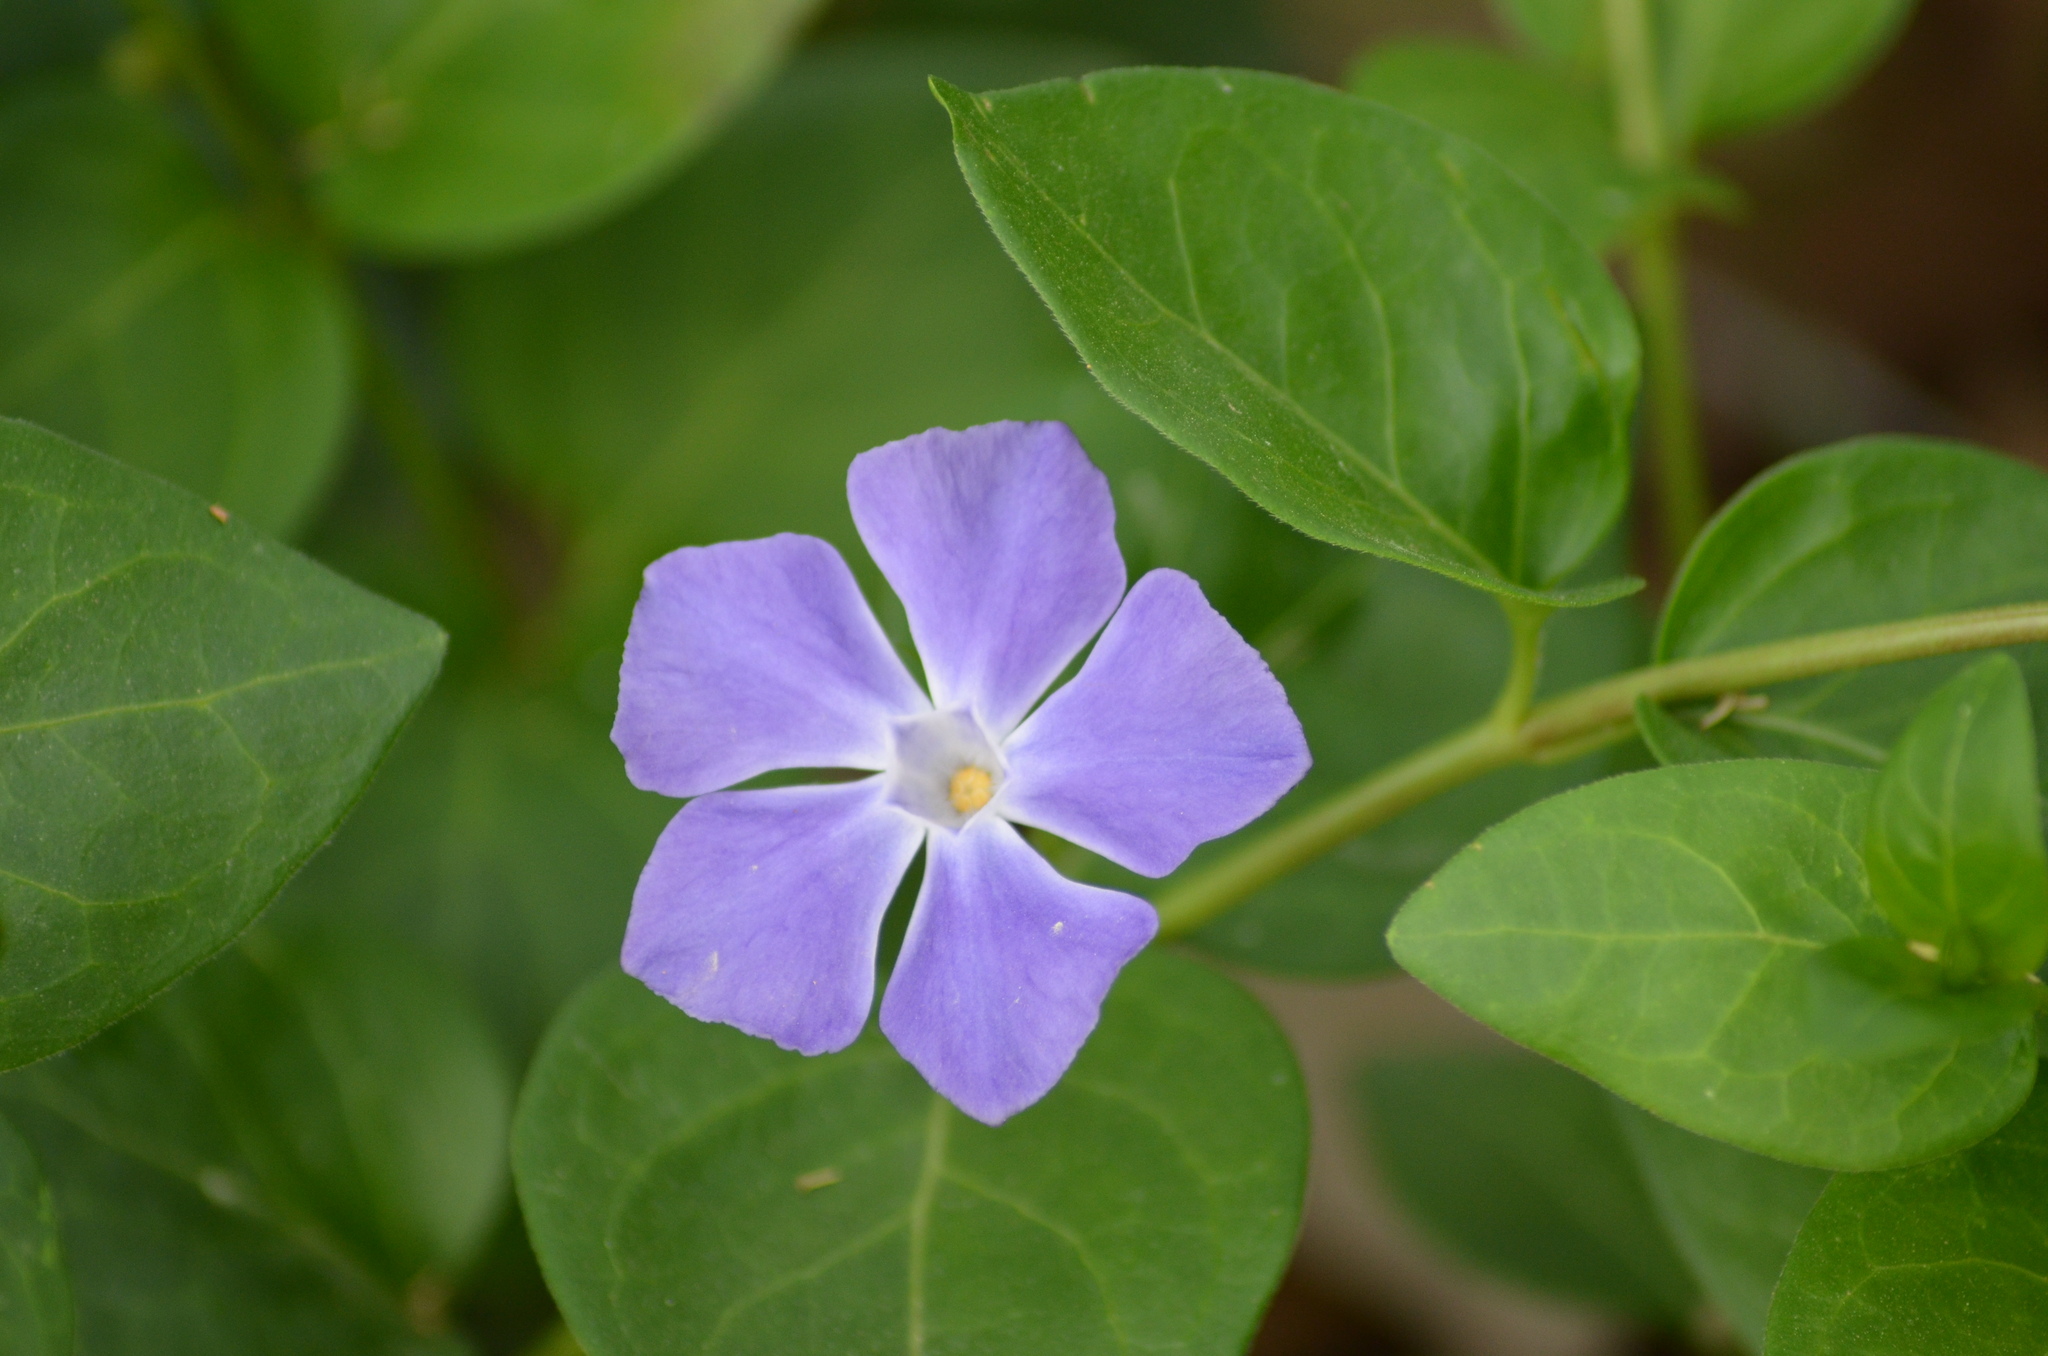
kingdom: Plantae
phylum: Tracheophyta
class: Magnoliopsida
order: Gentianales
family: Apocynaceae
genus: Vinca
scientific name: Vinca major
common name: Greater periwinkle
